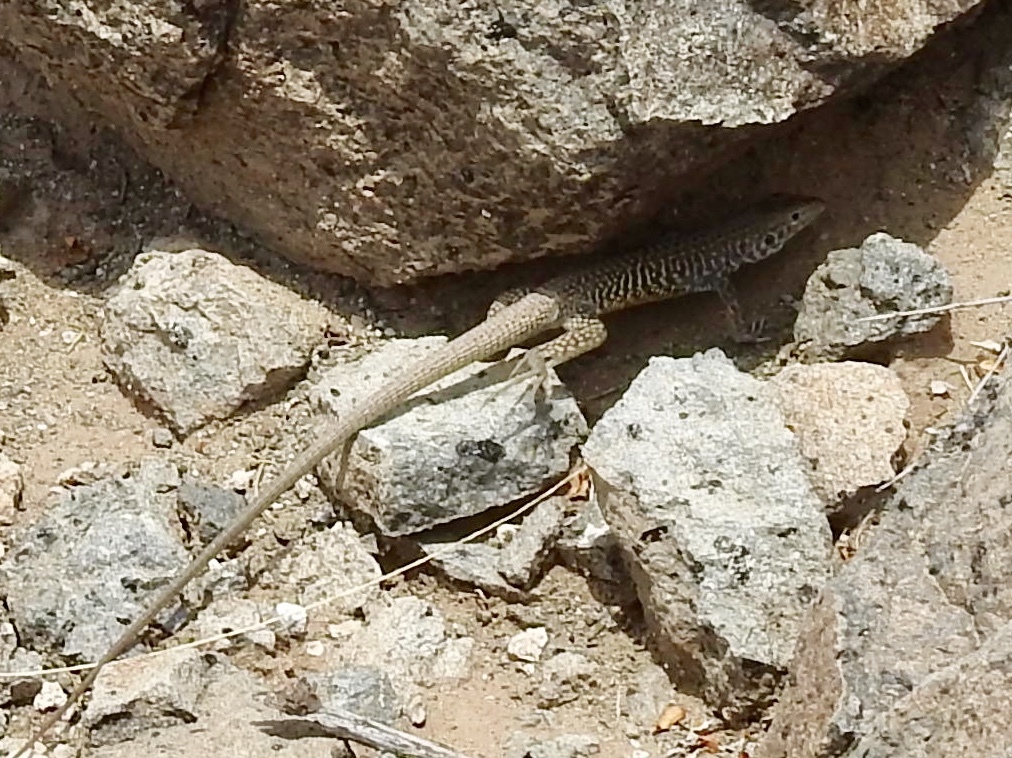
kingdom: Animalia
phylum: Chordata
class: Squamata
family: Teiidae
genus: Aspidoscelis
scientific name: Aspidoscelis marmoratus
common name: Eastern marbled whiptail [reticuloriens]
